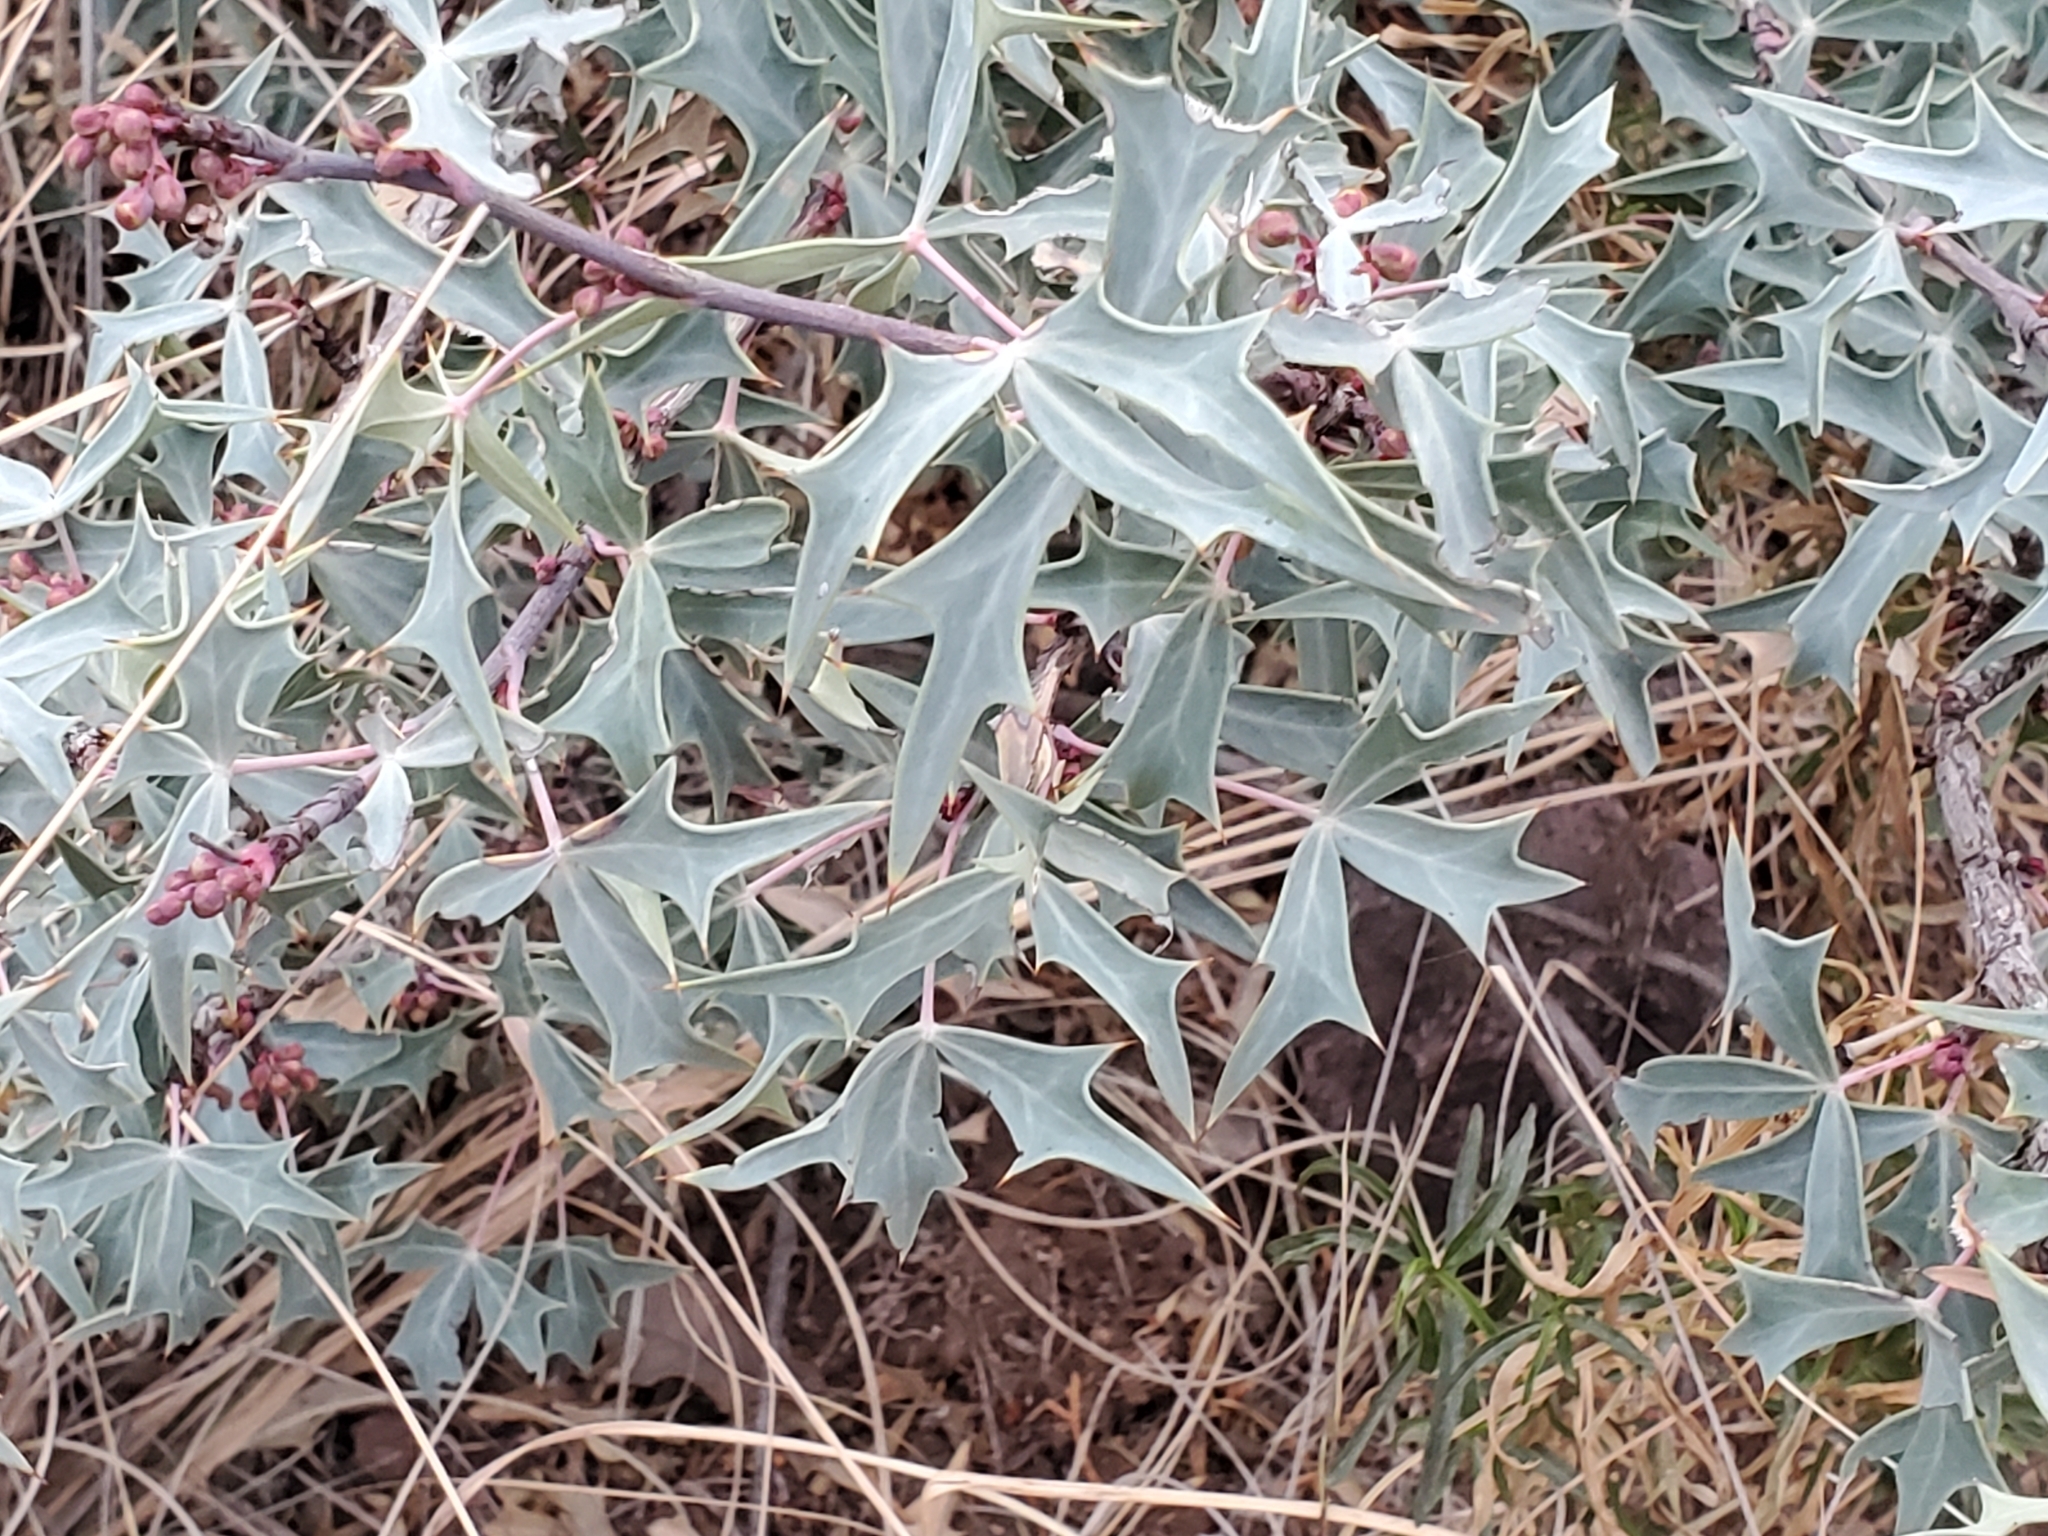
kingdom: Plantae
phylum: Tracheophyta
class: Magnoliopsida
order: Ranunculales
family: Berberidaceae
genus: Alloberberis
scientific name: Alloberberis trifoliolata
